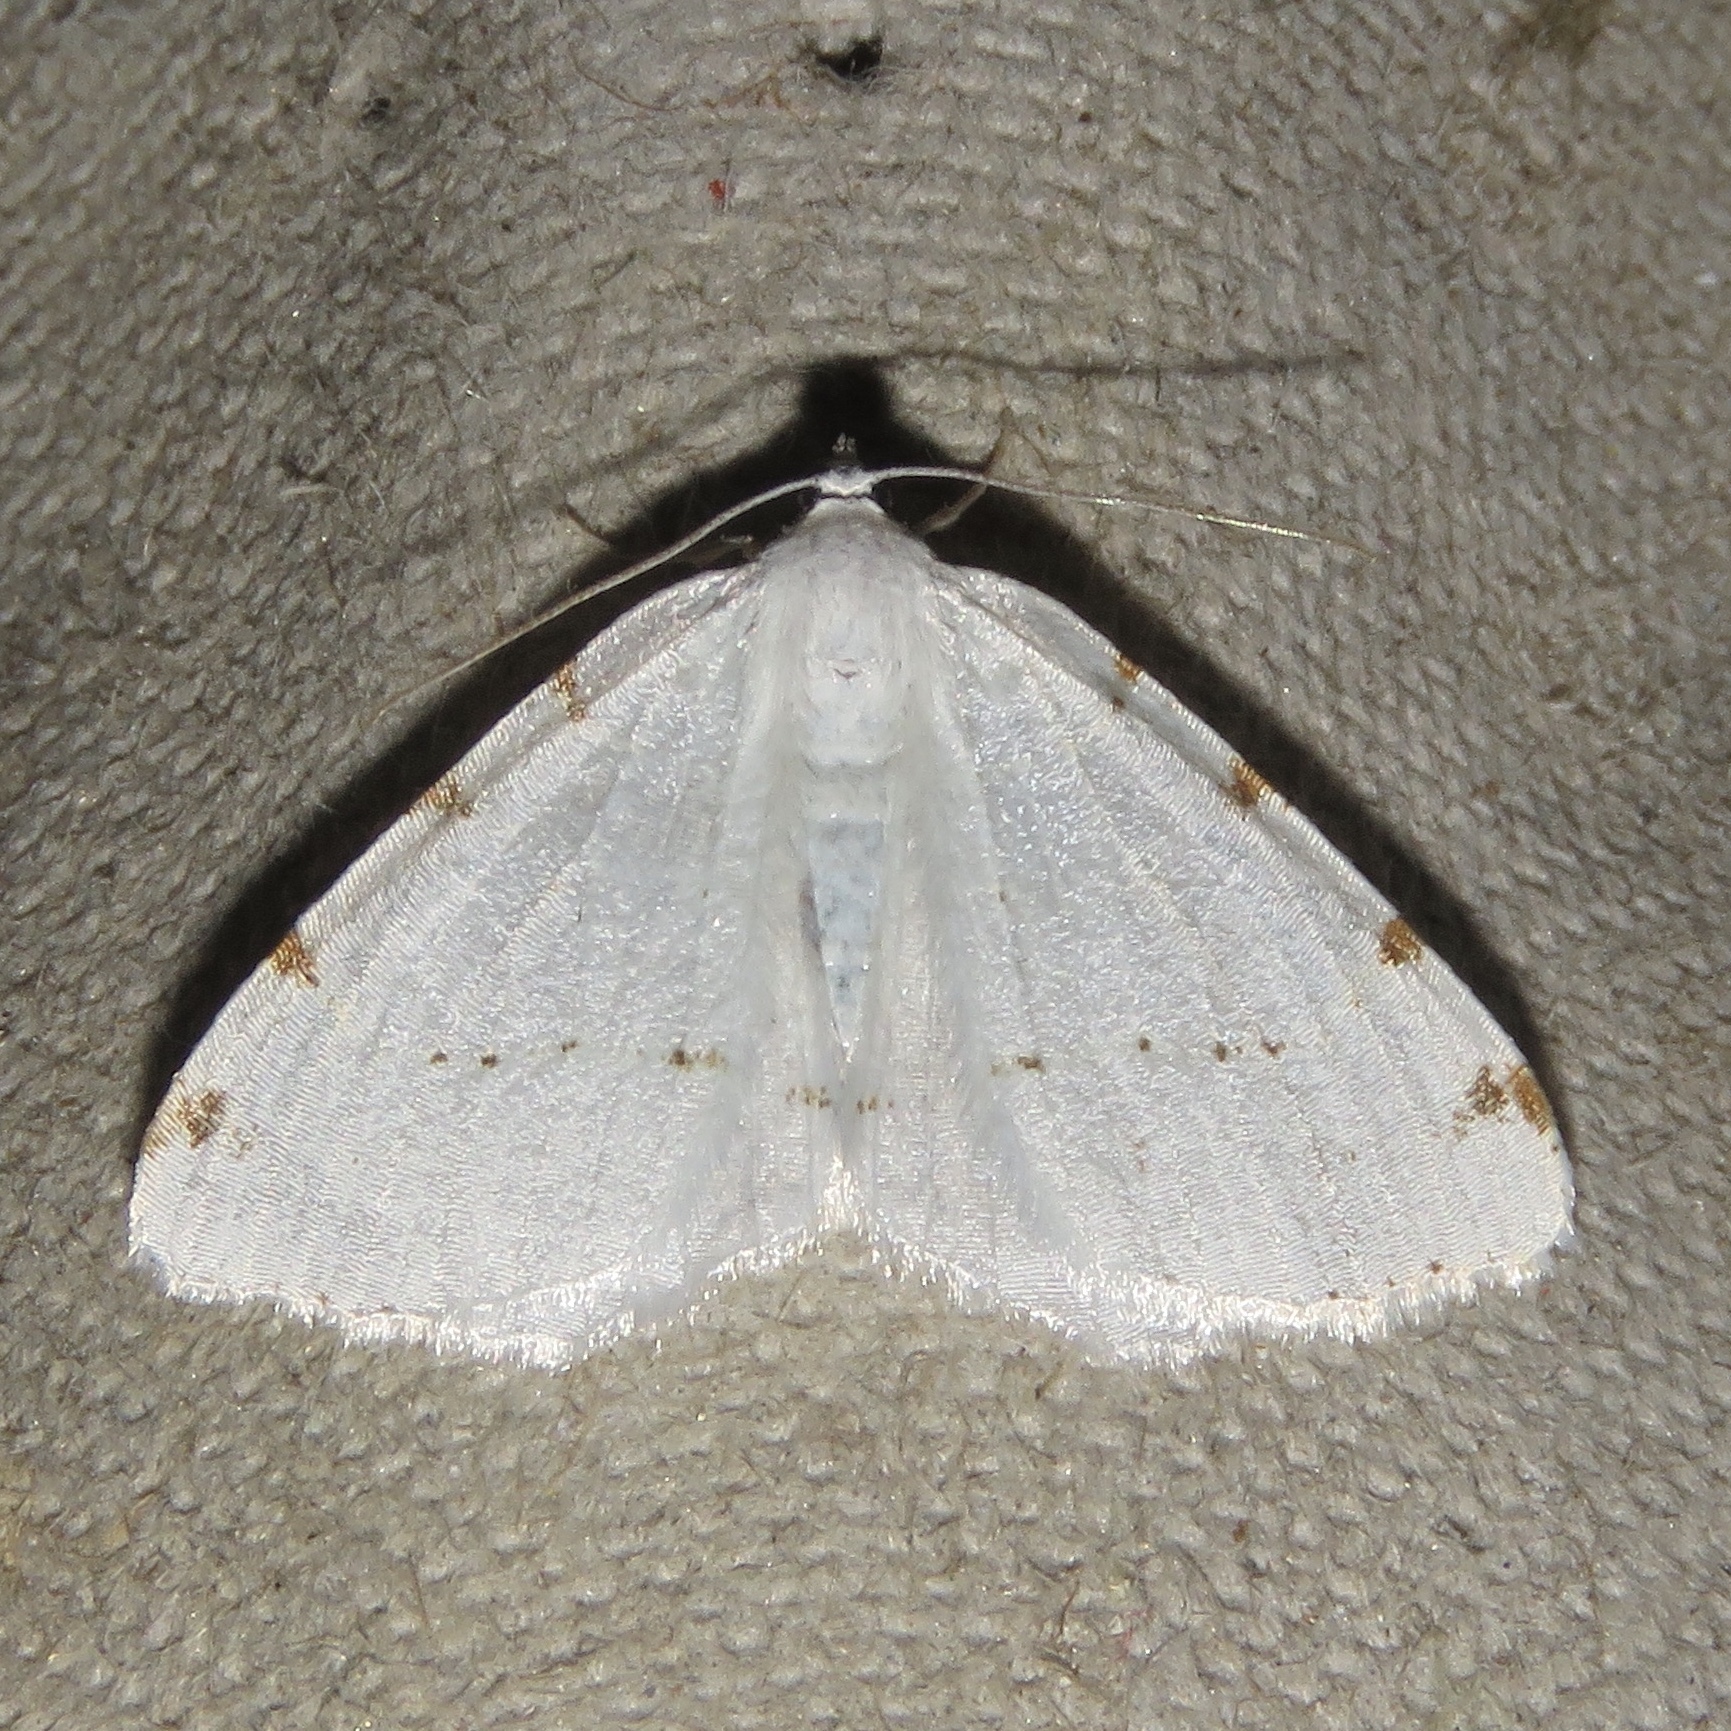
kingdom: Animalia
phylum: Arthropoda
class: Insecta
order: Lepidoptera
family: Geometridae
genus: Macaria
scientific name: Macaria pustularia
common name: Lesser maple spanworm moth
